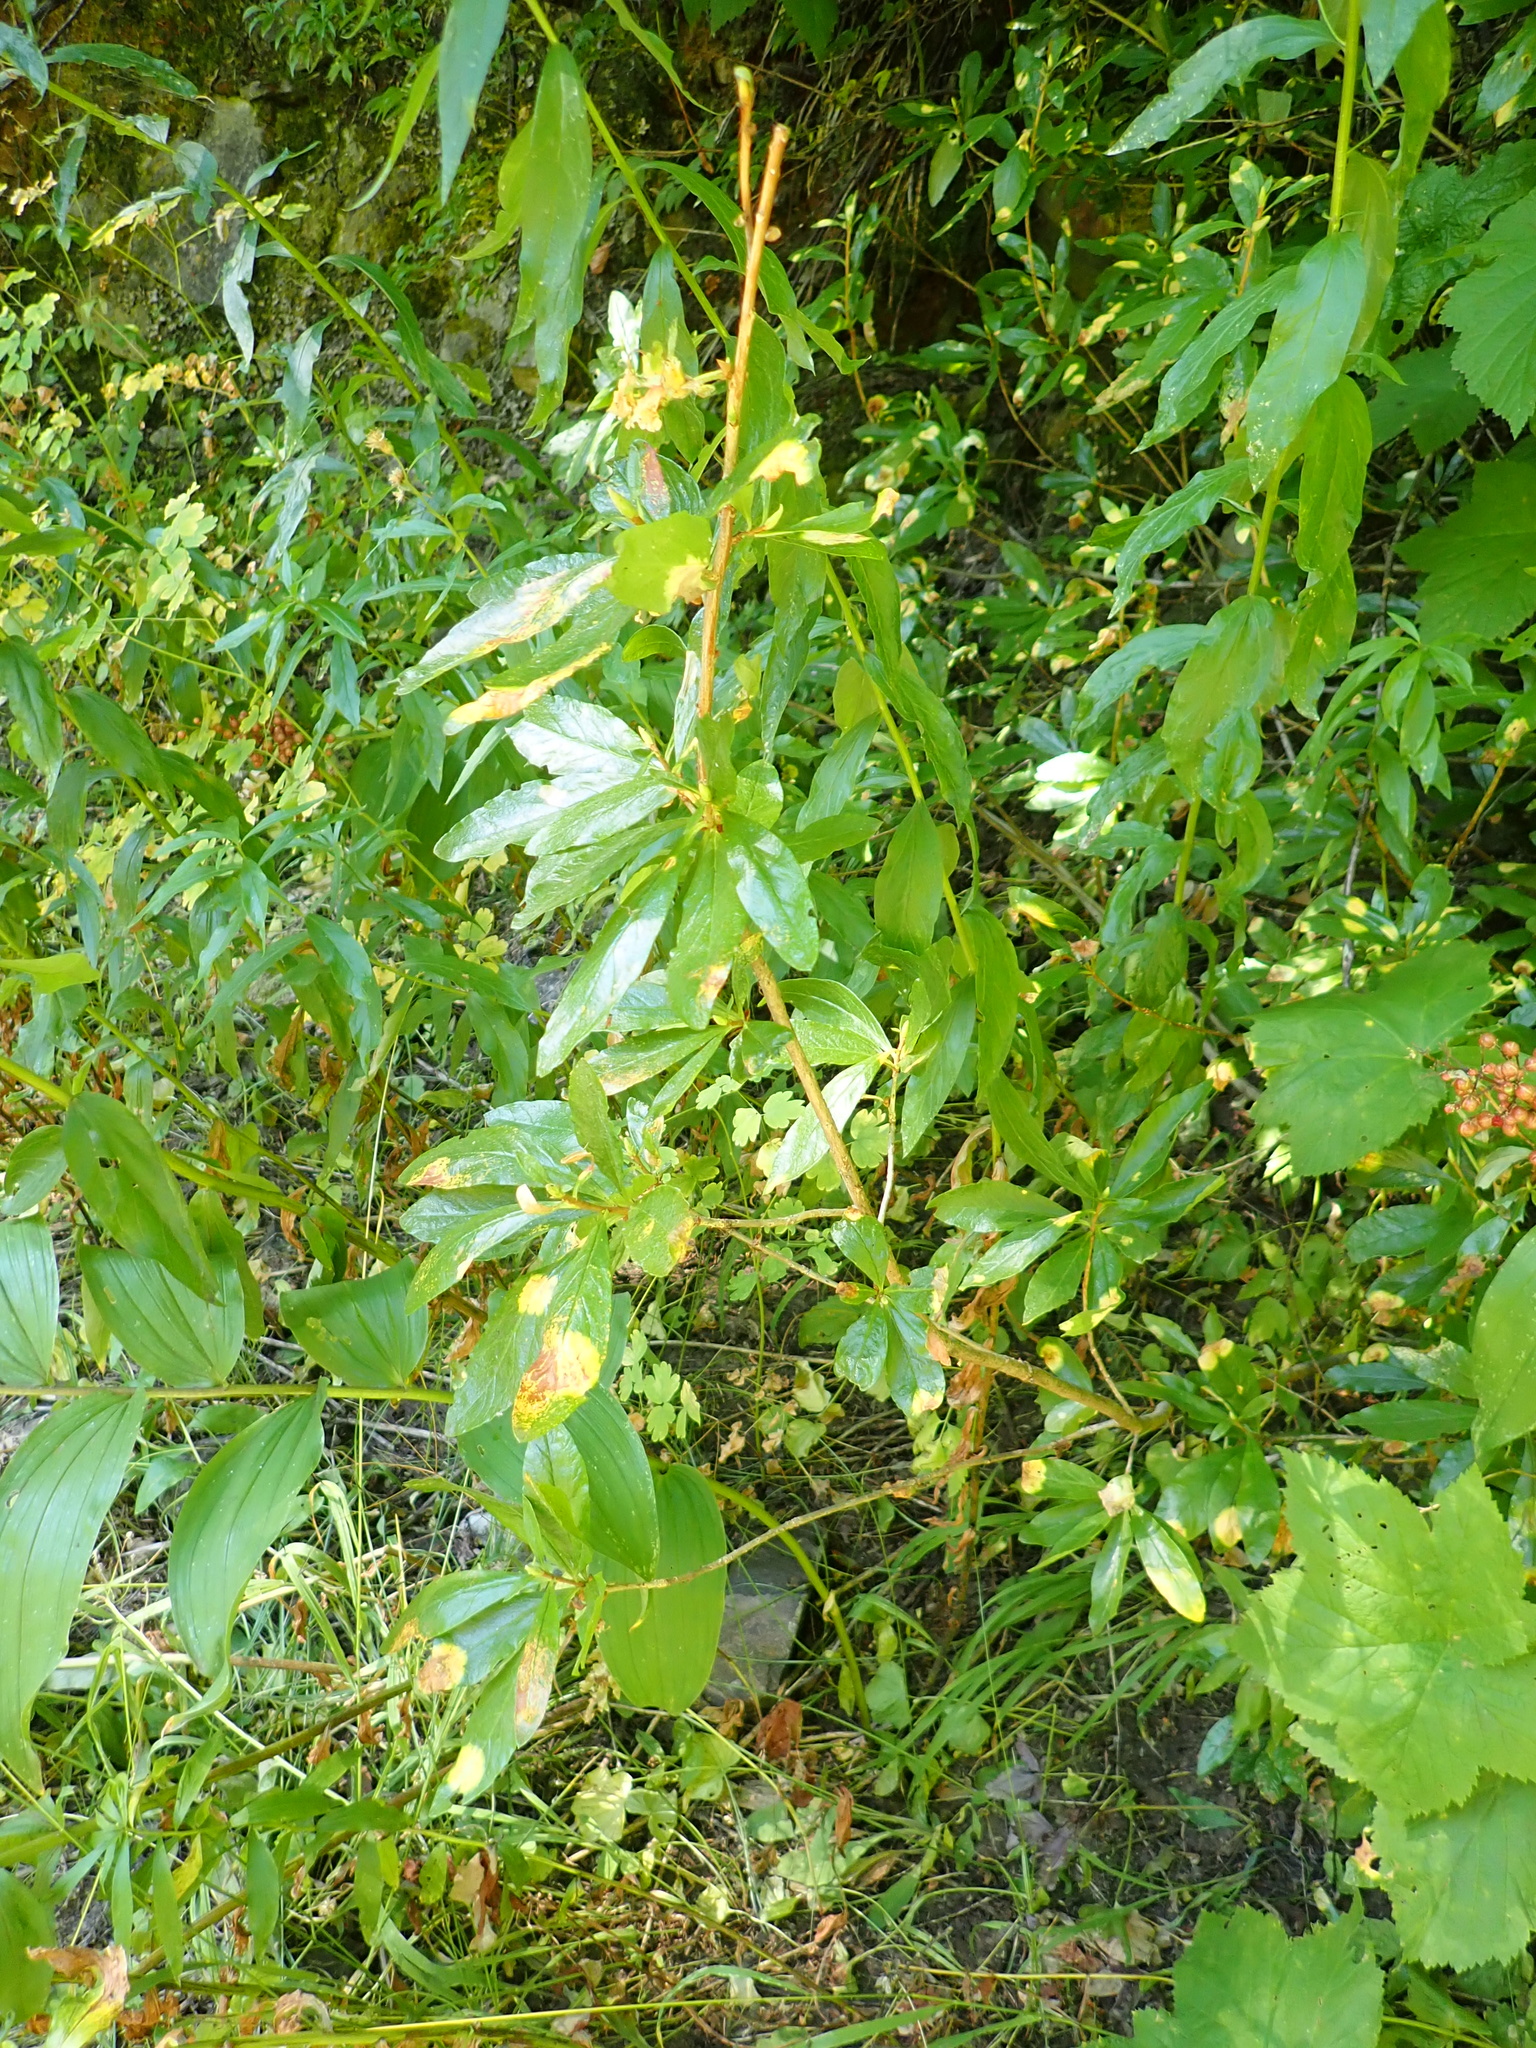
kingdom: Plantae
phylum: Tracheophyta
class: Magnoliopsida
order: Ericales
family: Ericaceae
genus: Rhododendron
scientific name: Rhododendron albiflorum
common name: White rhododendron
